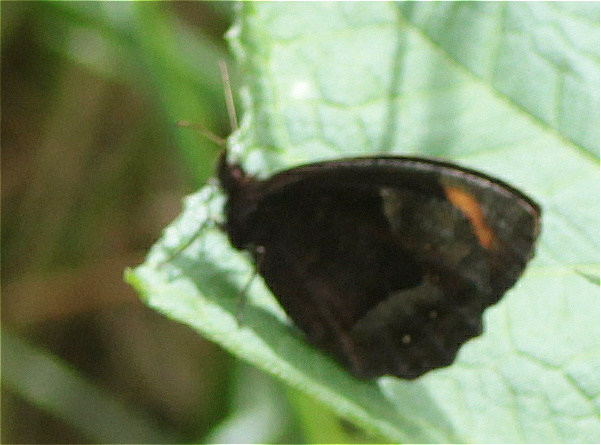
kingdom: Animalia
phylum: Arthropoda
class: Insecta
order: Lepidoptera
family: Nymphalidae
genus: Parapedaliodes
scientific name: Parapedaliodes parepa
